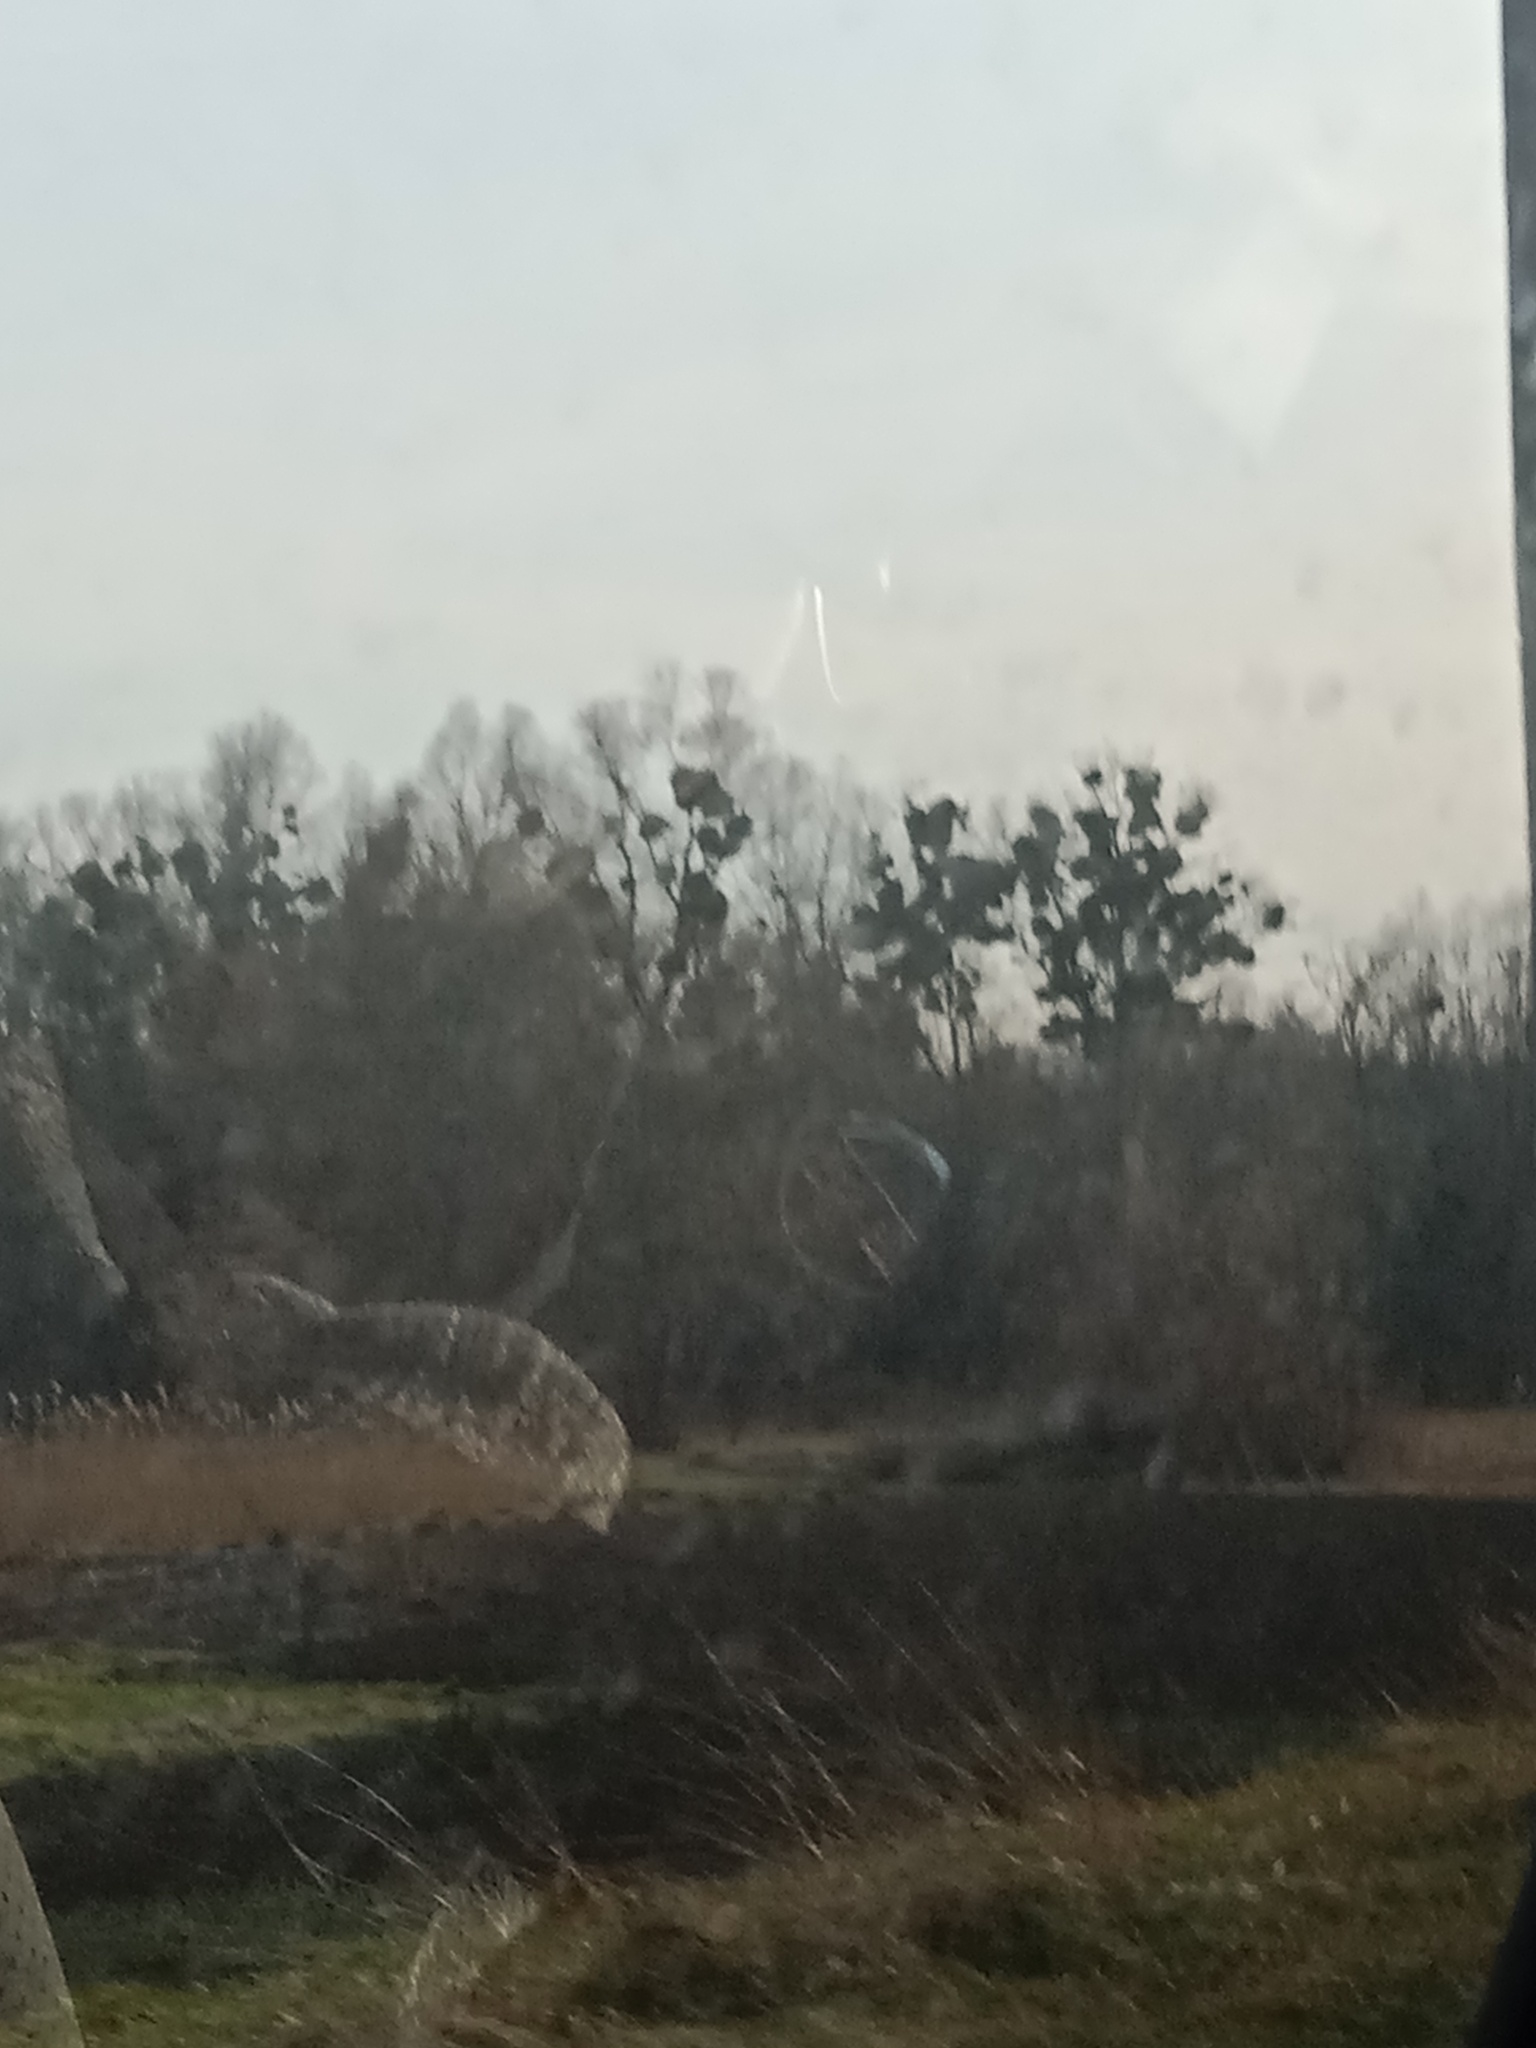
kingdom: Plantae
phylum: Tracheophyta
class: Magnoliopsida
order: Santalales
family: Viscaceae
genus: Viscum
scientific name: Viscum album
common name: Mistletoe
